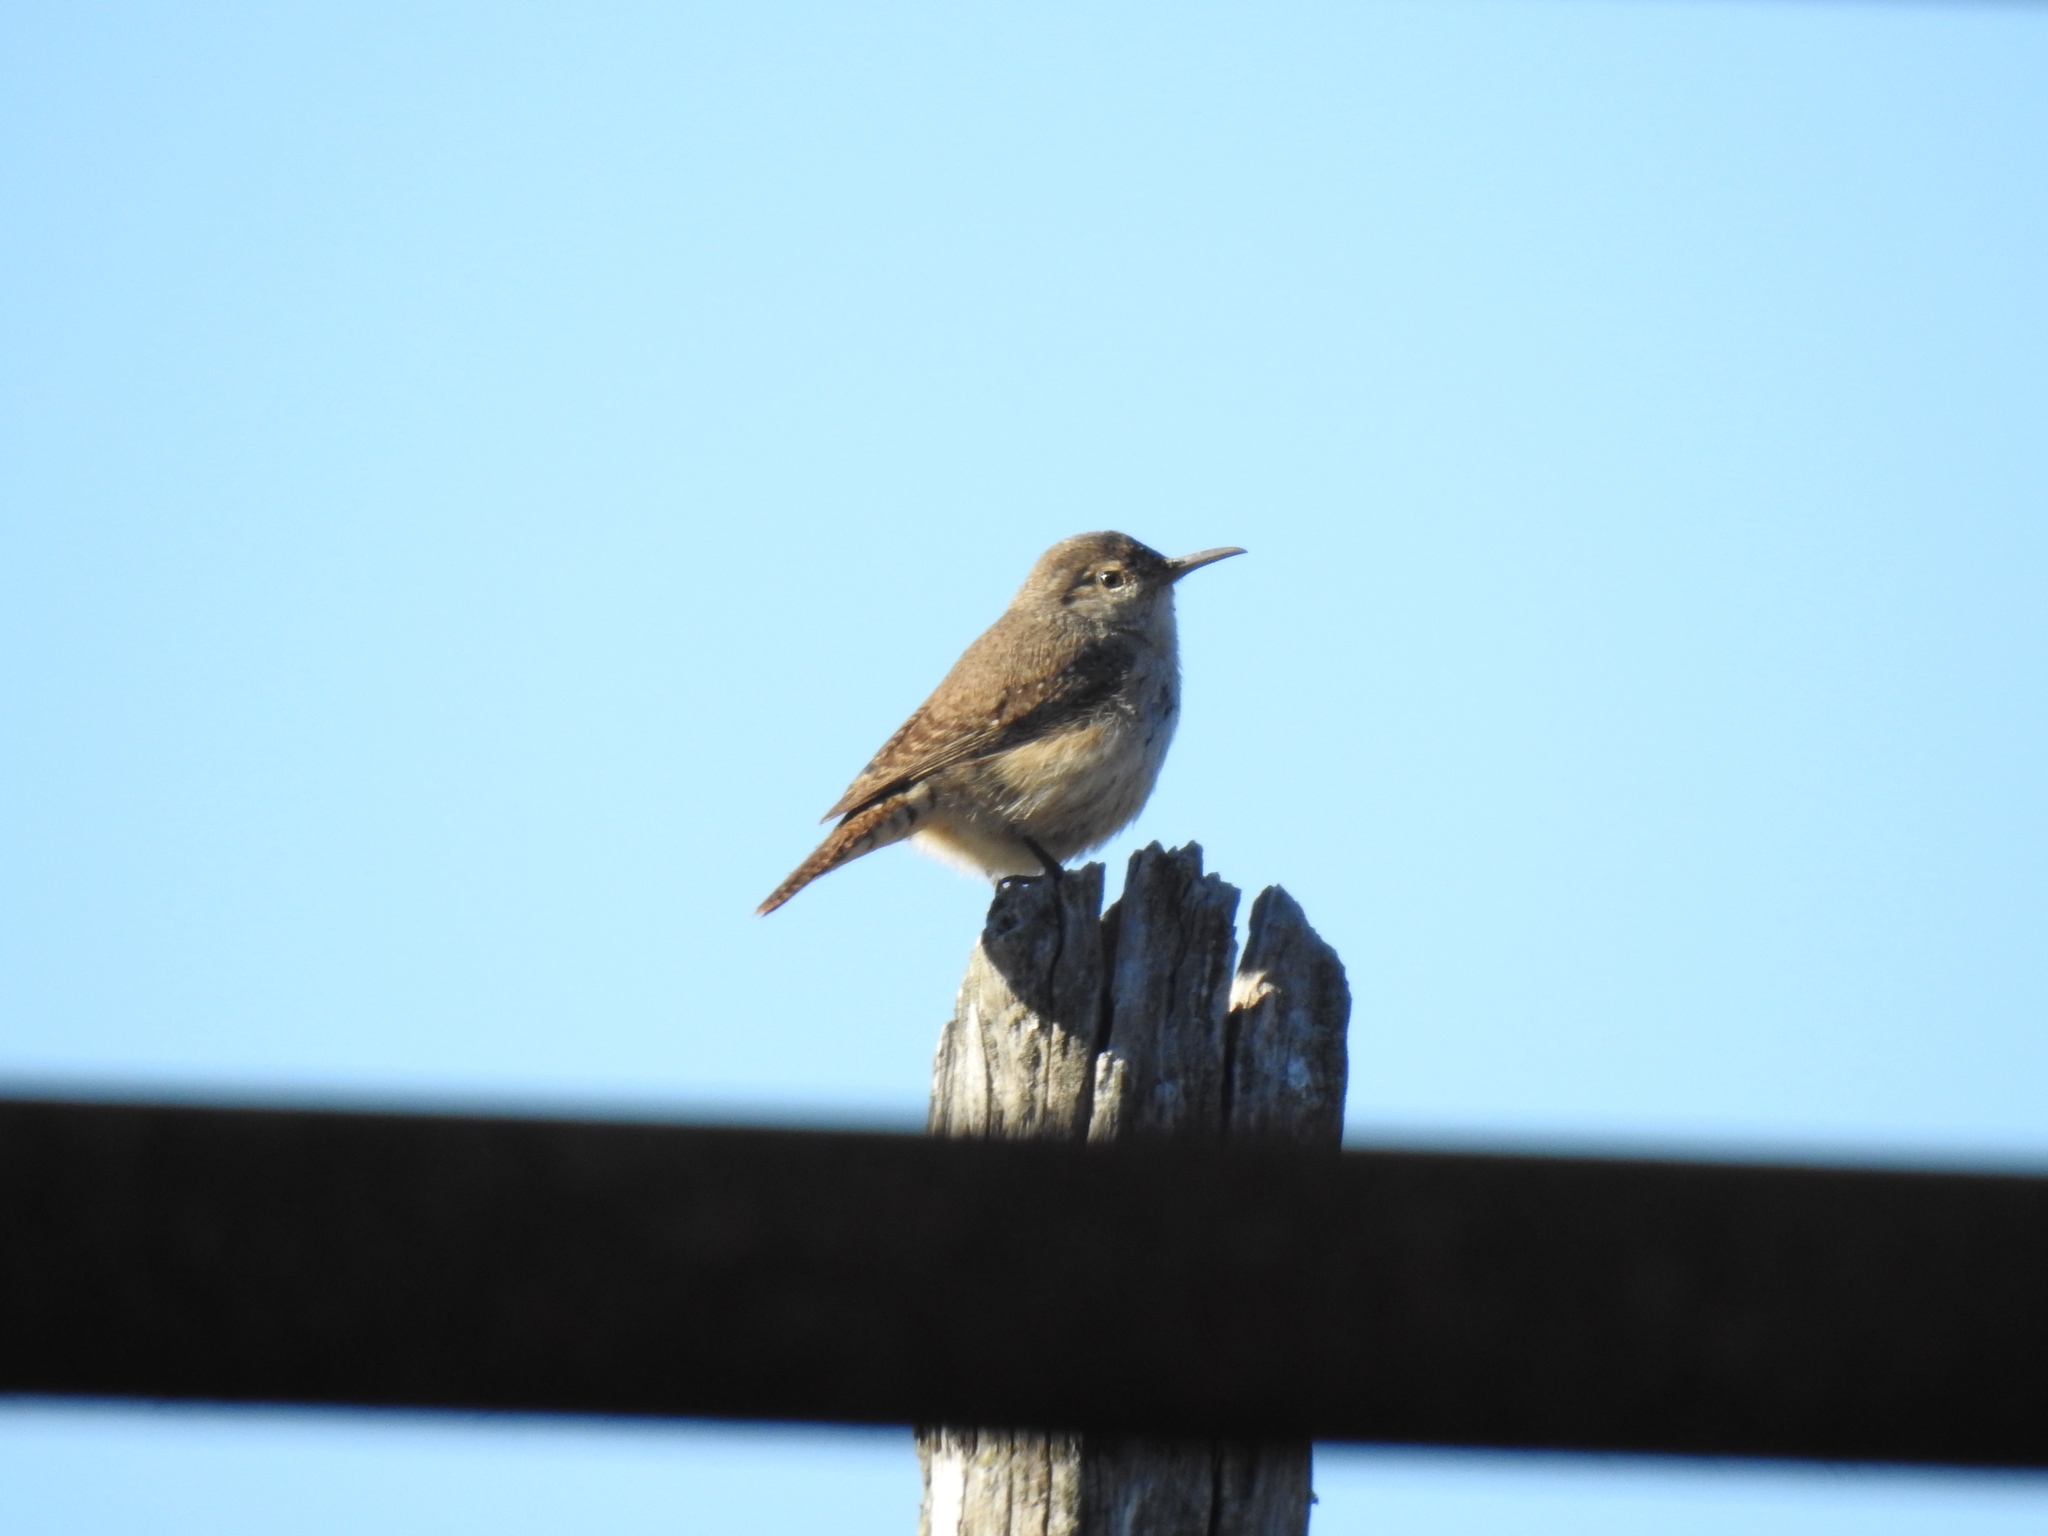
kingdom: Animalia
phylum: Chordata
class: Aves
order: Passeriformes
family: Troglodytidae
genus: Salpinctes
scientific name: Salpinctes obsoletus
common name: Rock wren
